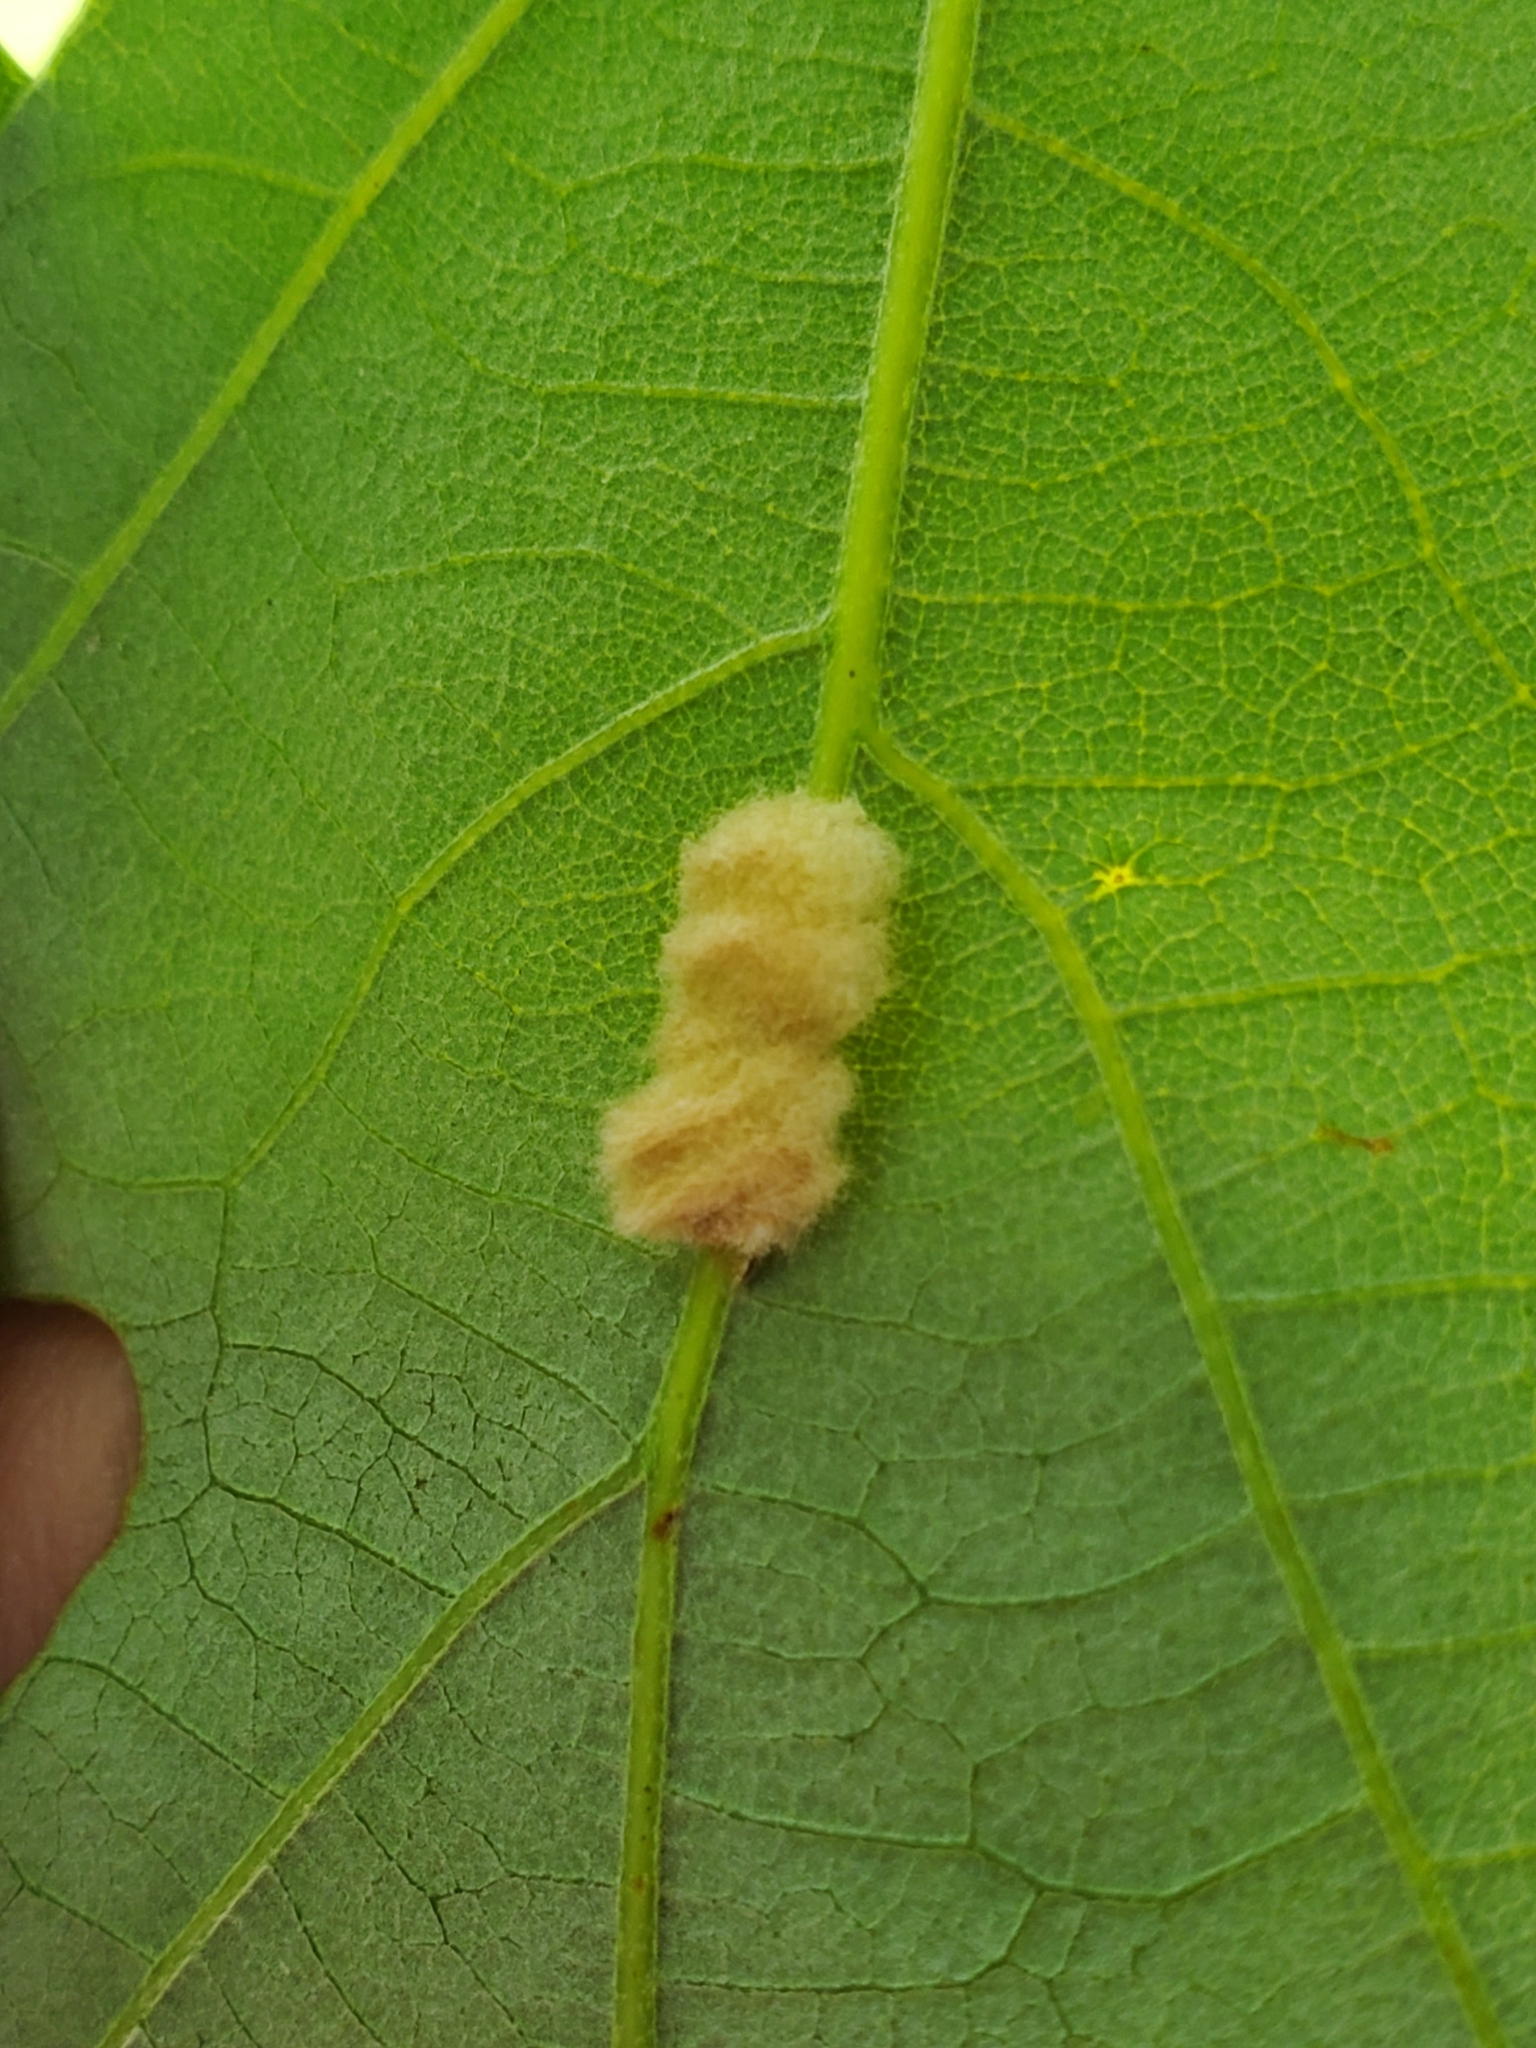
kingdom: Animalia
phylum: Arthropoda
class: Insecta
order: Hymenoptera
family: Cynipidae
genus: Andricus
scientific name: Andricus Druon ignotum
